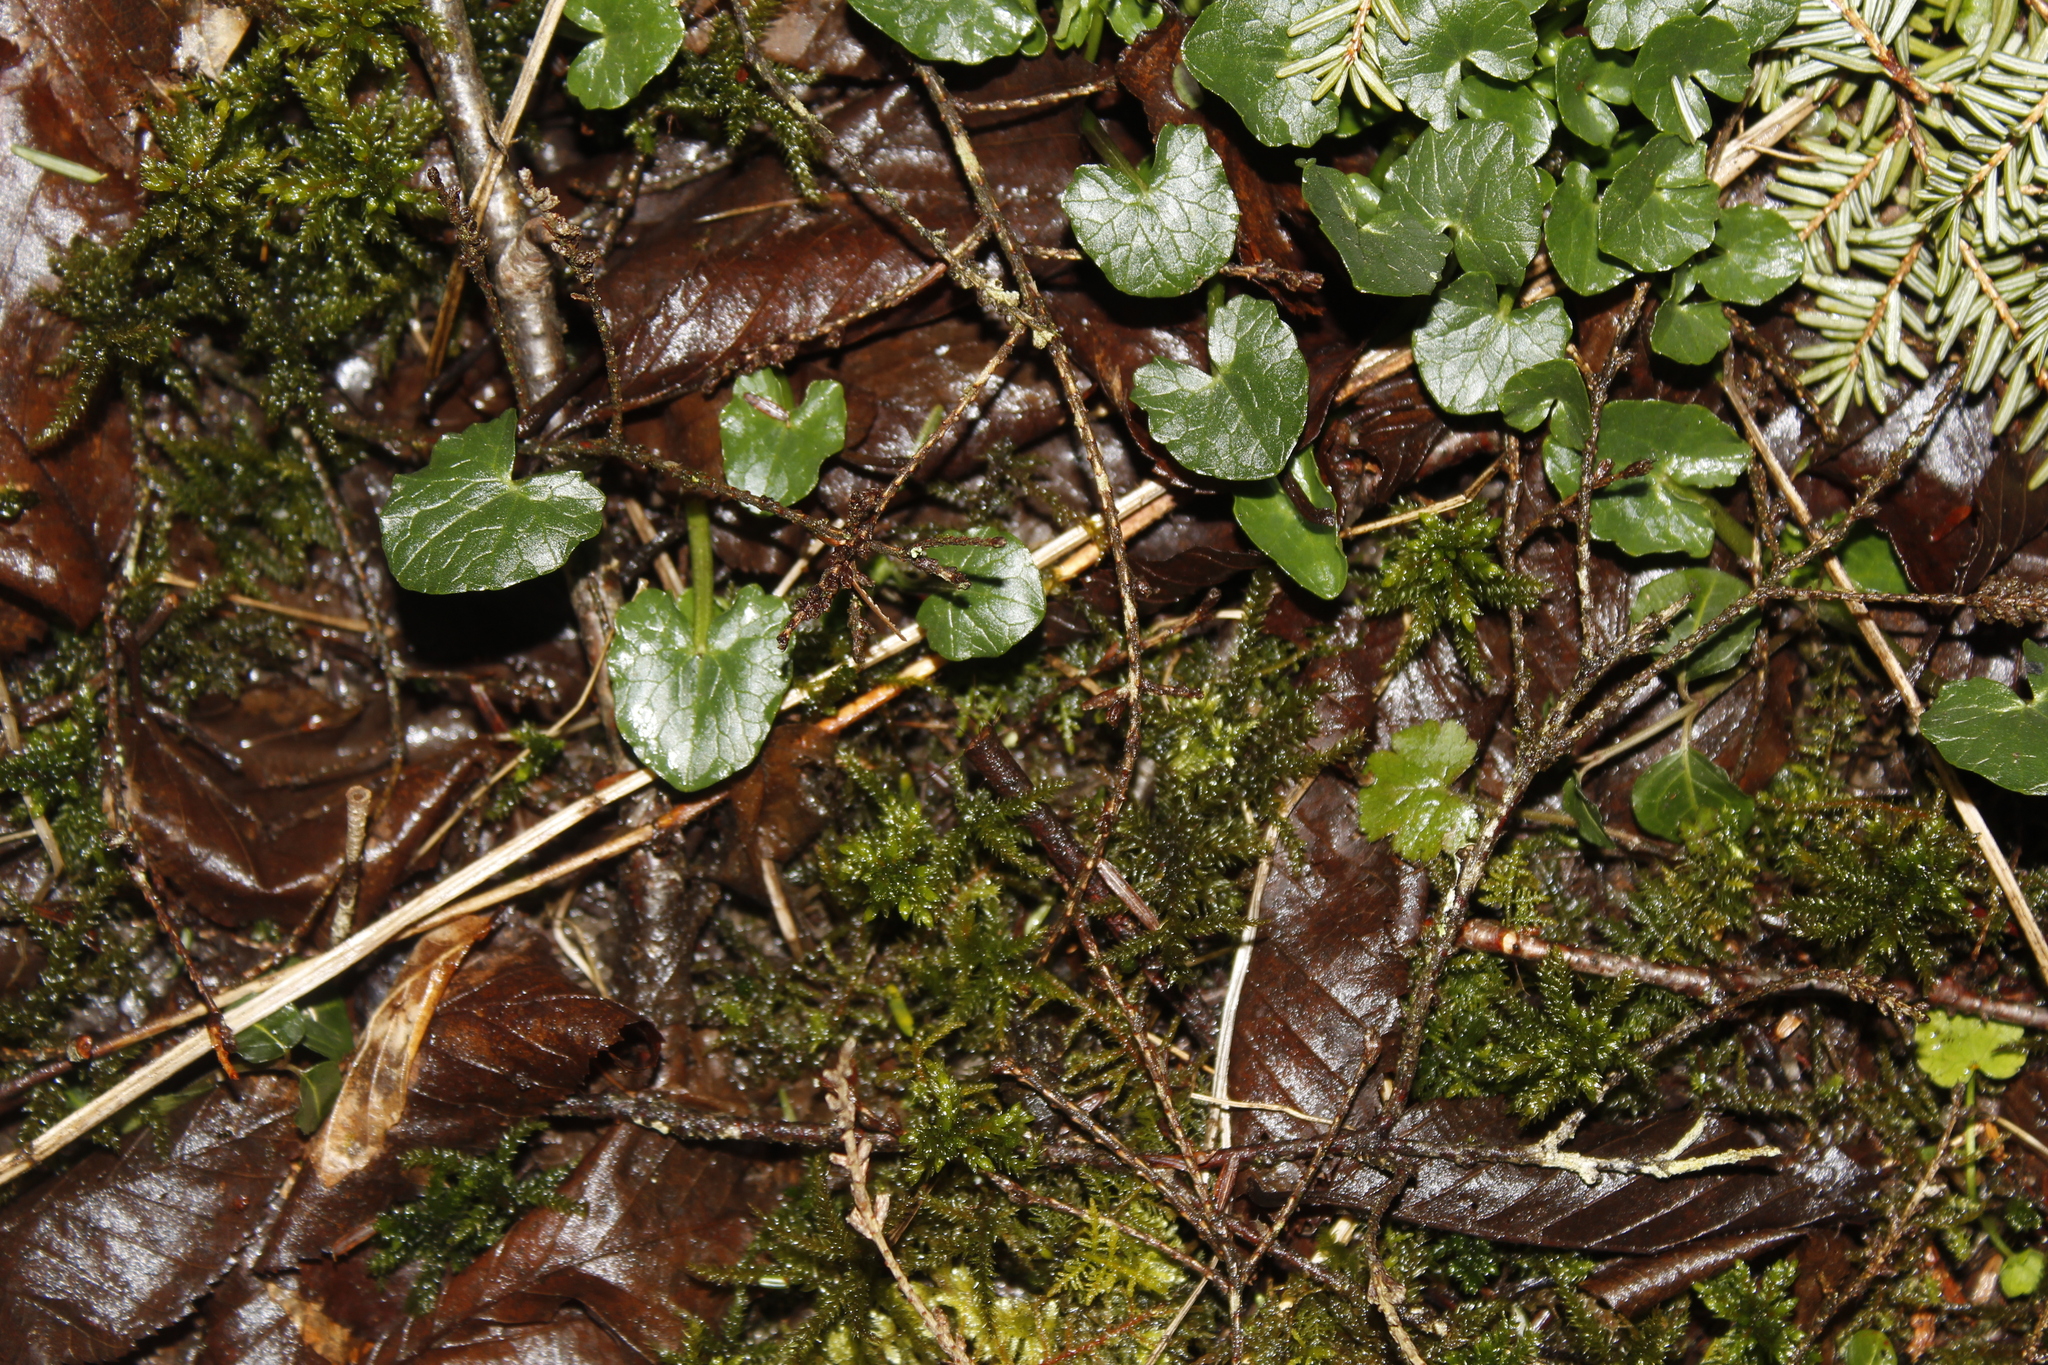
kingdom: Plantae
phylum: Tracheophyta
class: Magnoliopsida
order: Ranunculales
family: Ranunculaceae
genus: Ficaria
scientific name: Ficaria verna
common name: Lesser celandine
